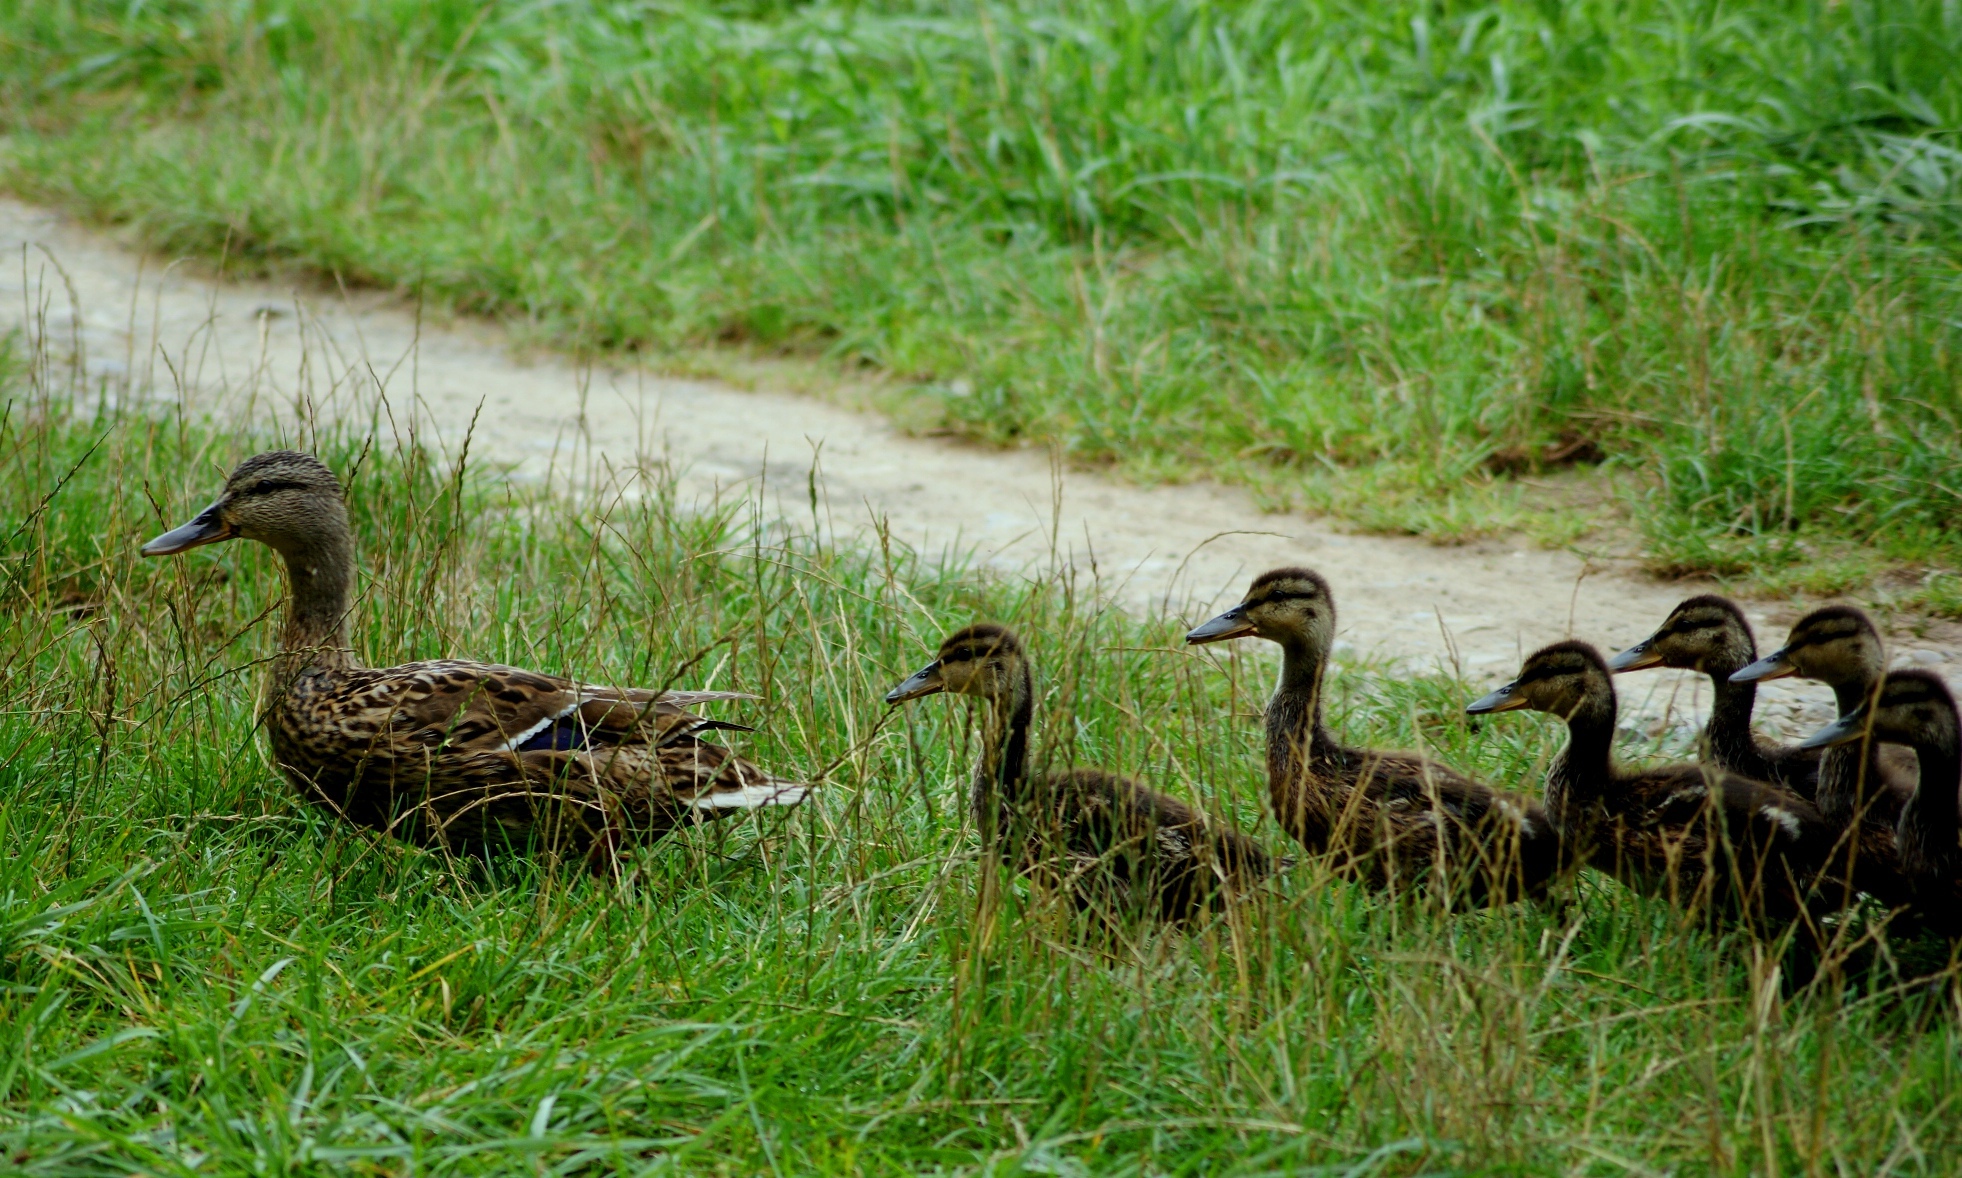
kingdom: Animalia
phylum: Chordata
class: Aves
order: Anseriformes
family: Anatidae
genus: Anas
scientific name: Anas platyrhynchos
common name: Mallard
